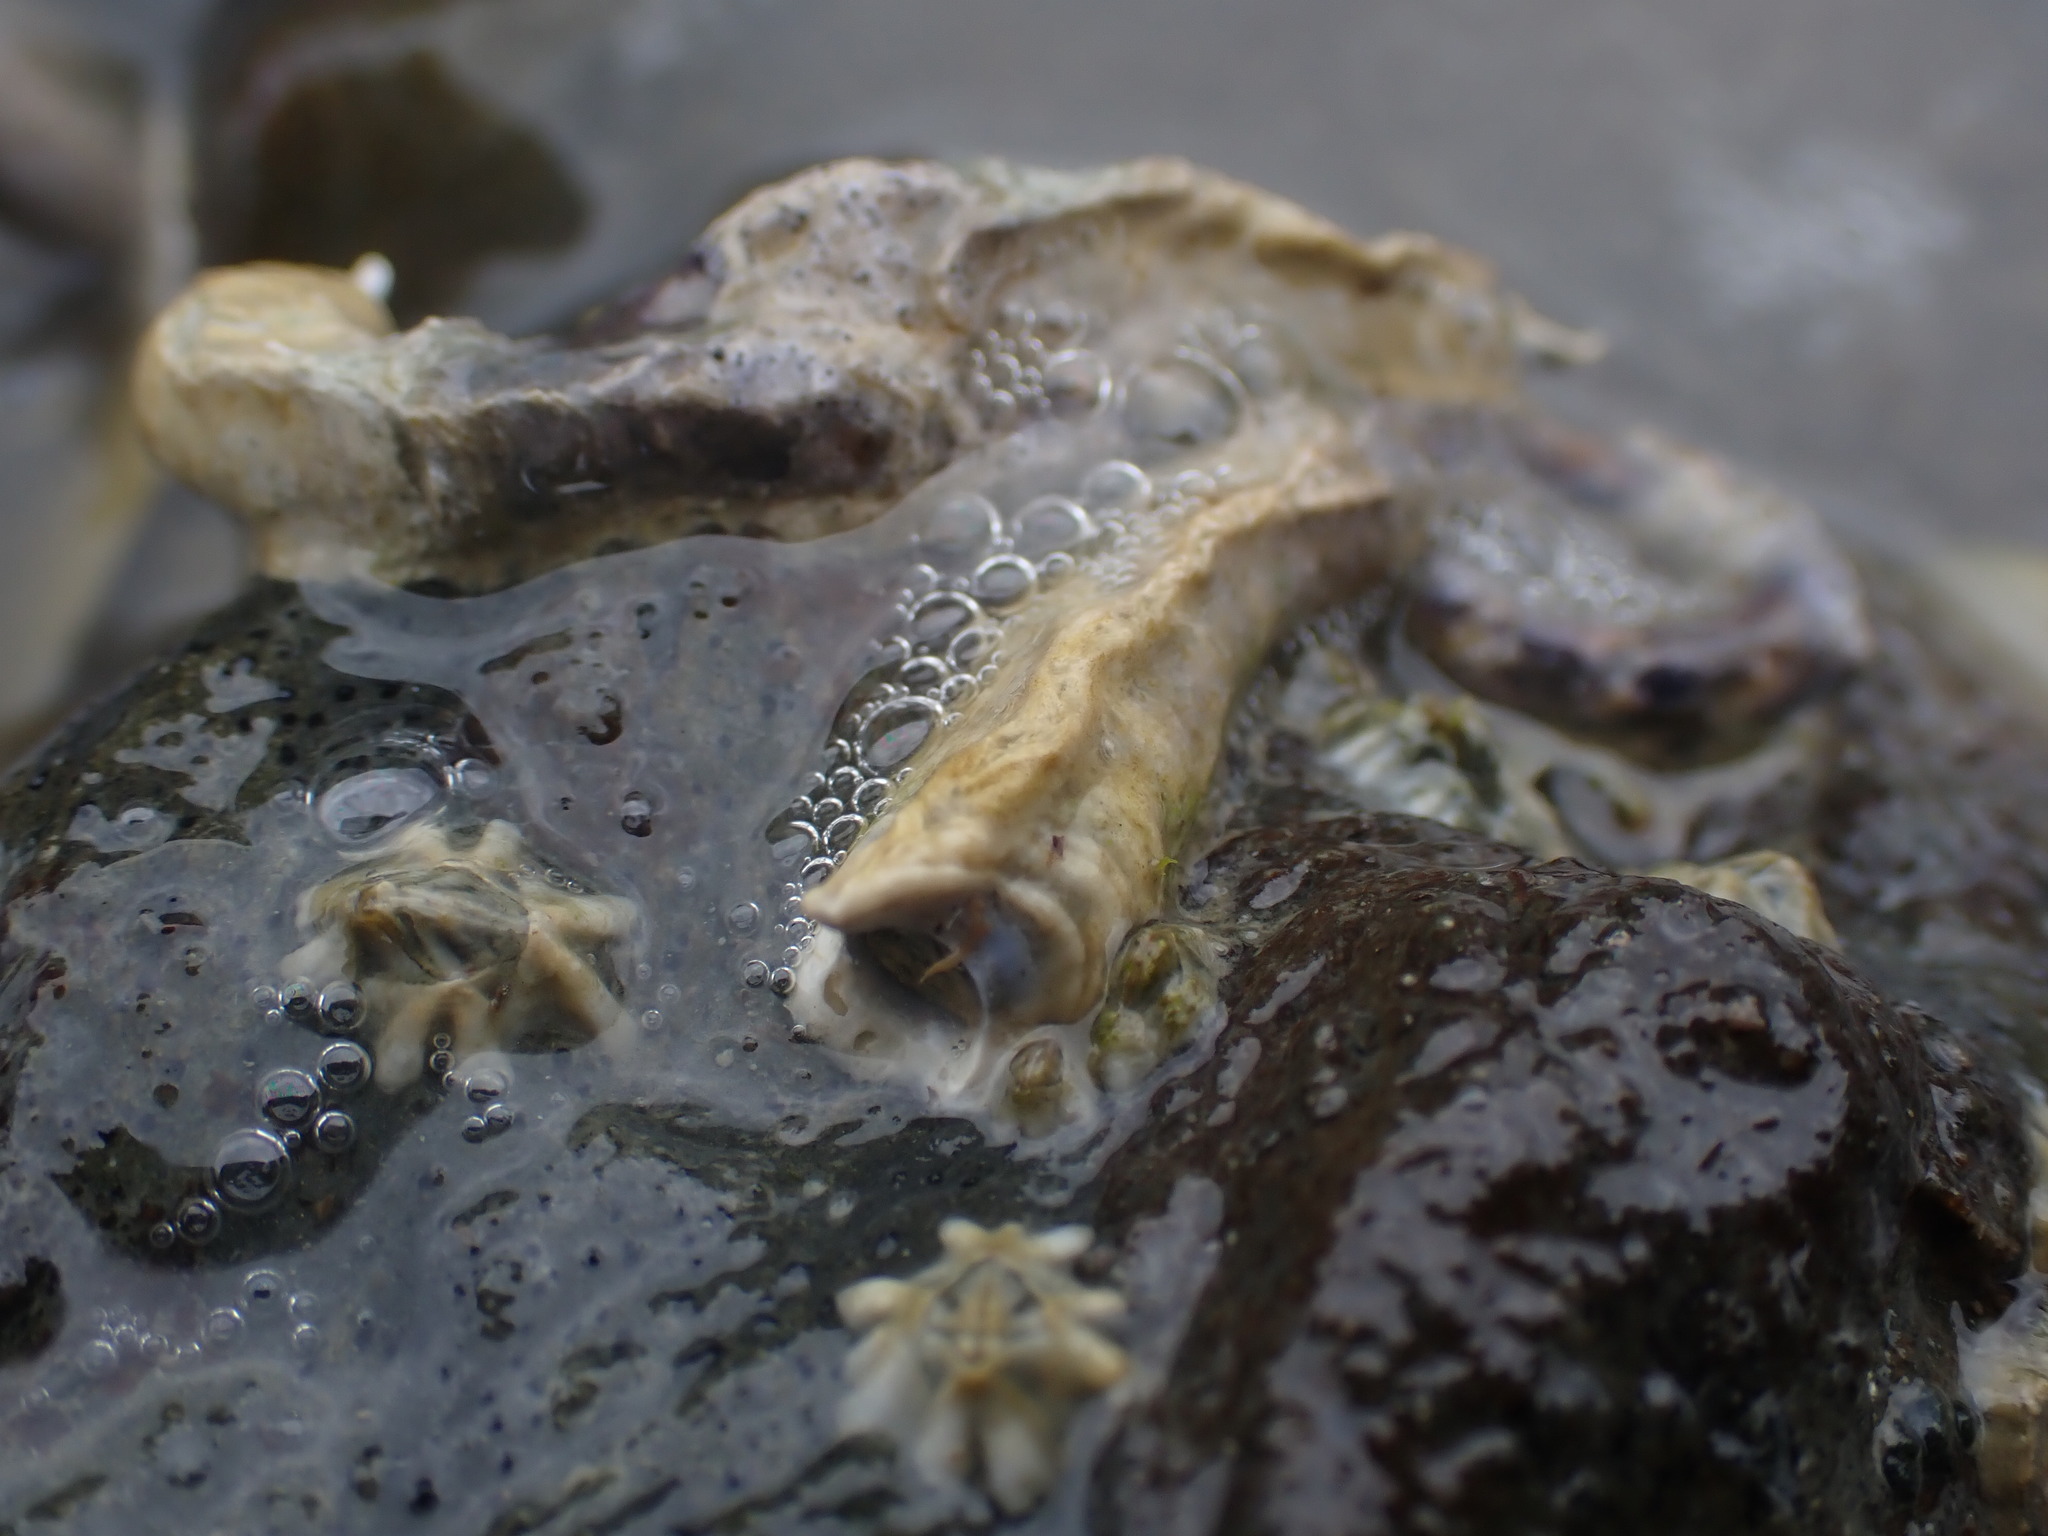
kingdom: Animalia
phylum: Annelida
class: Polychaeta
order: Sabellida
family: Serpulidae
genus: Spirobranchus
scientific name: Spirobranchus cariniferus
